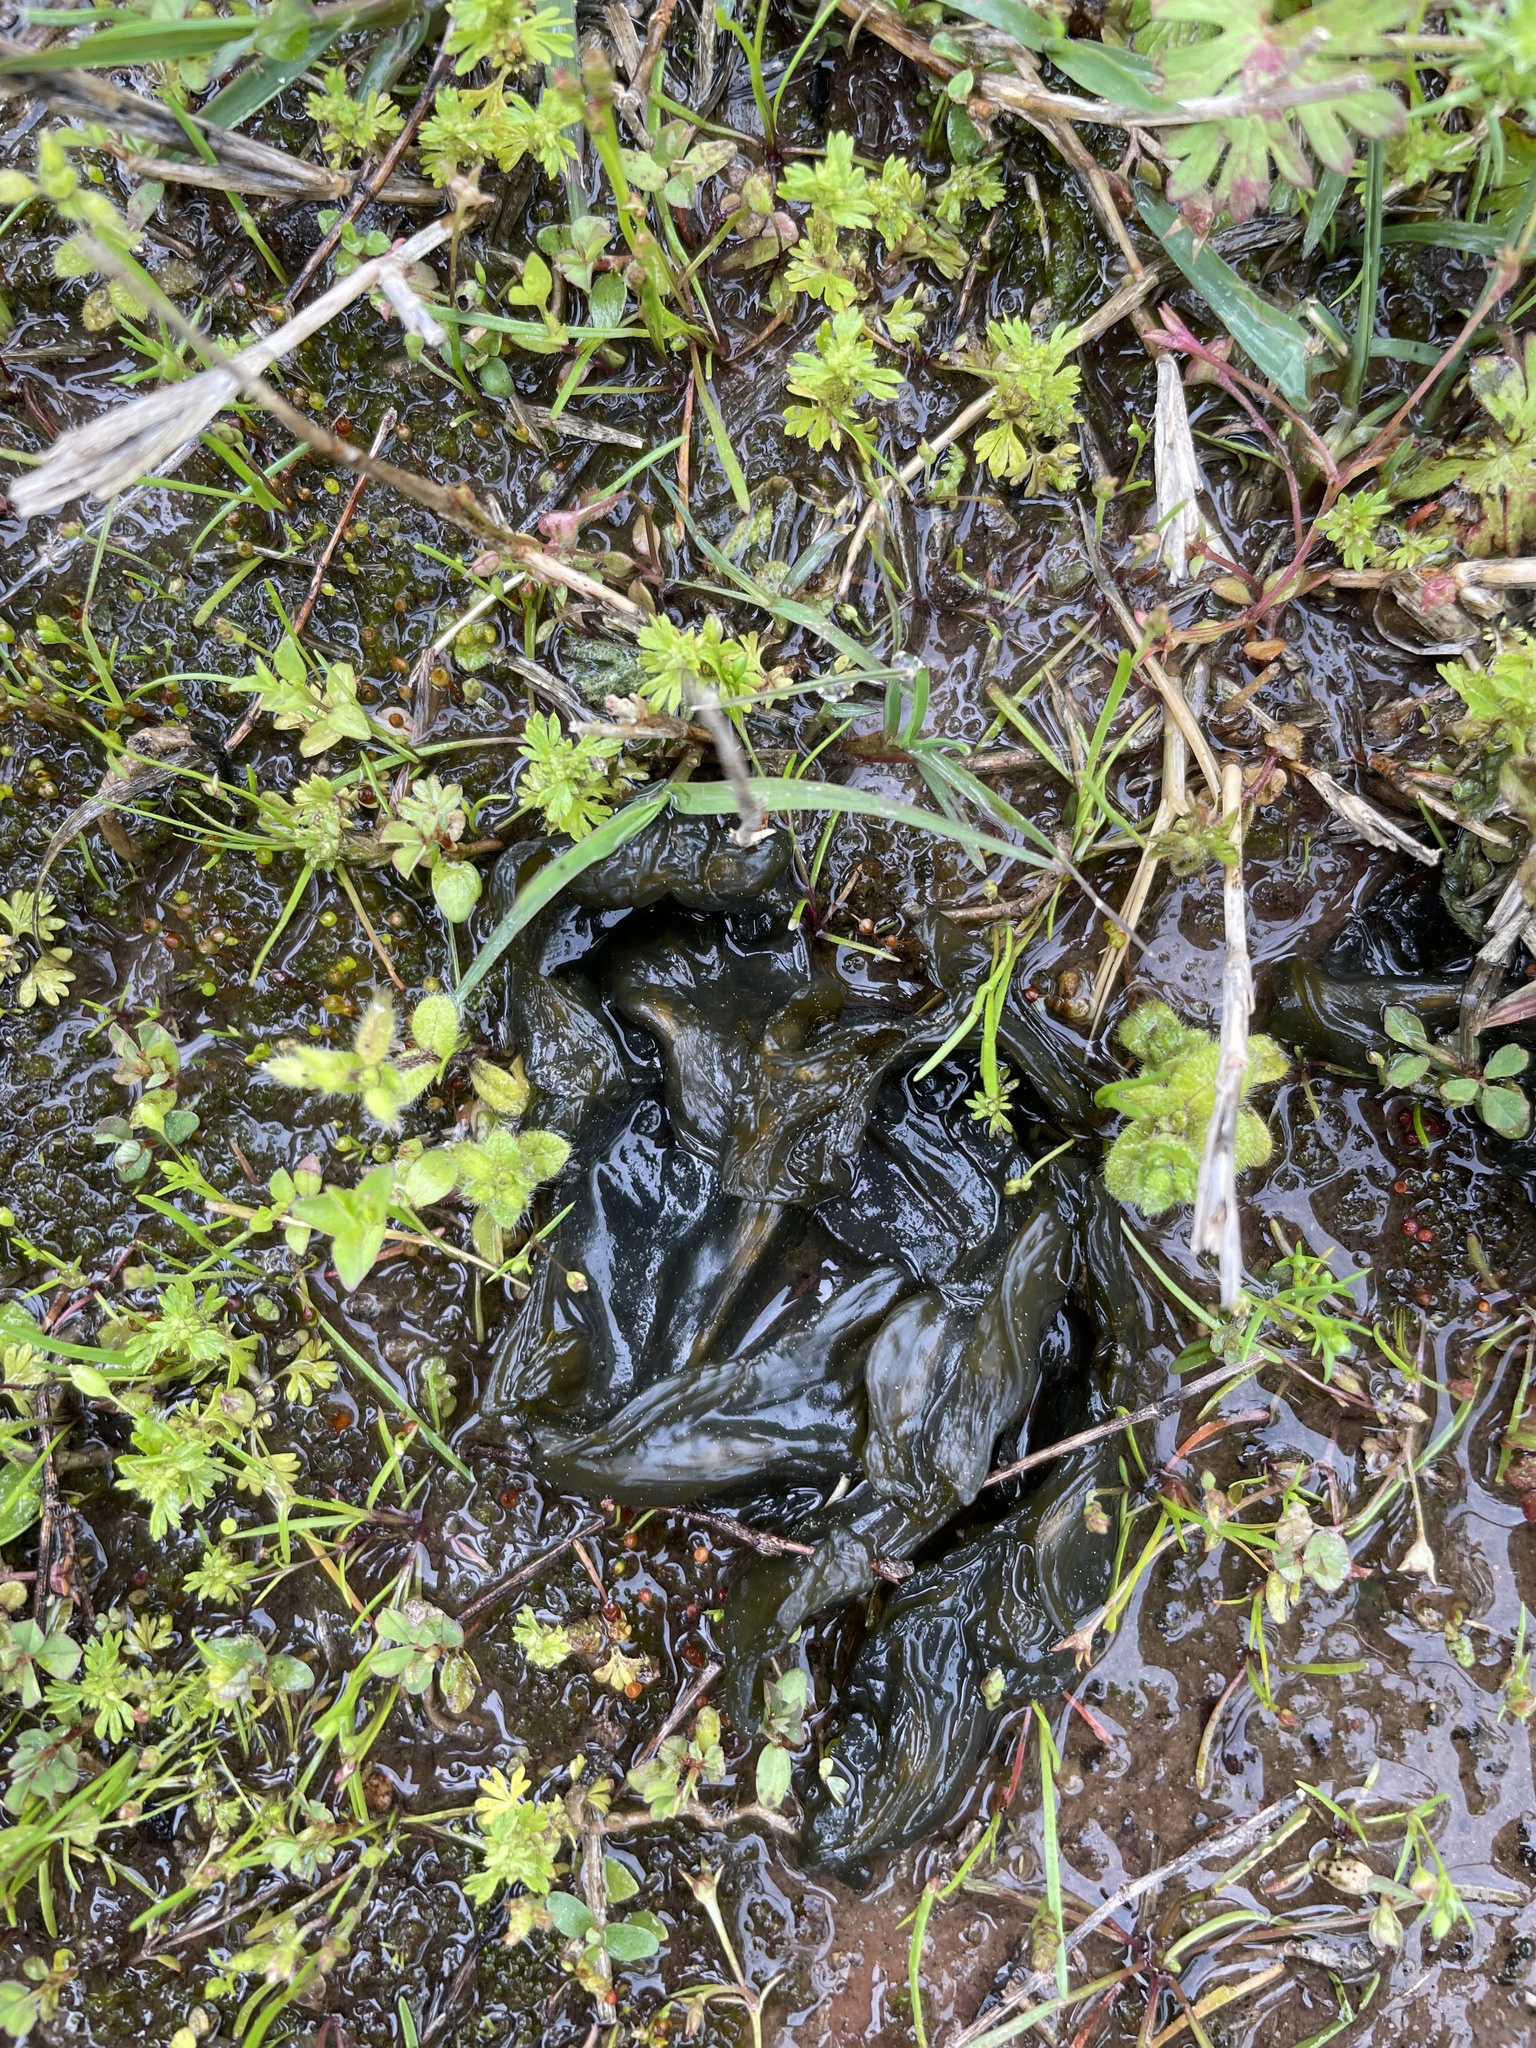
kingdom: Bacteria
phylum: Cyanobacteria
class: Cyanobacteriia
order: Cyanobacteriales
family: Nostocaceae
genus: Nostoc
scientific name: Nostoc commune
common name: Star jelly
